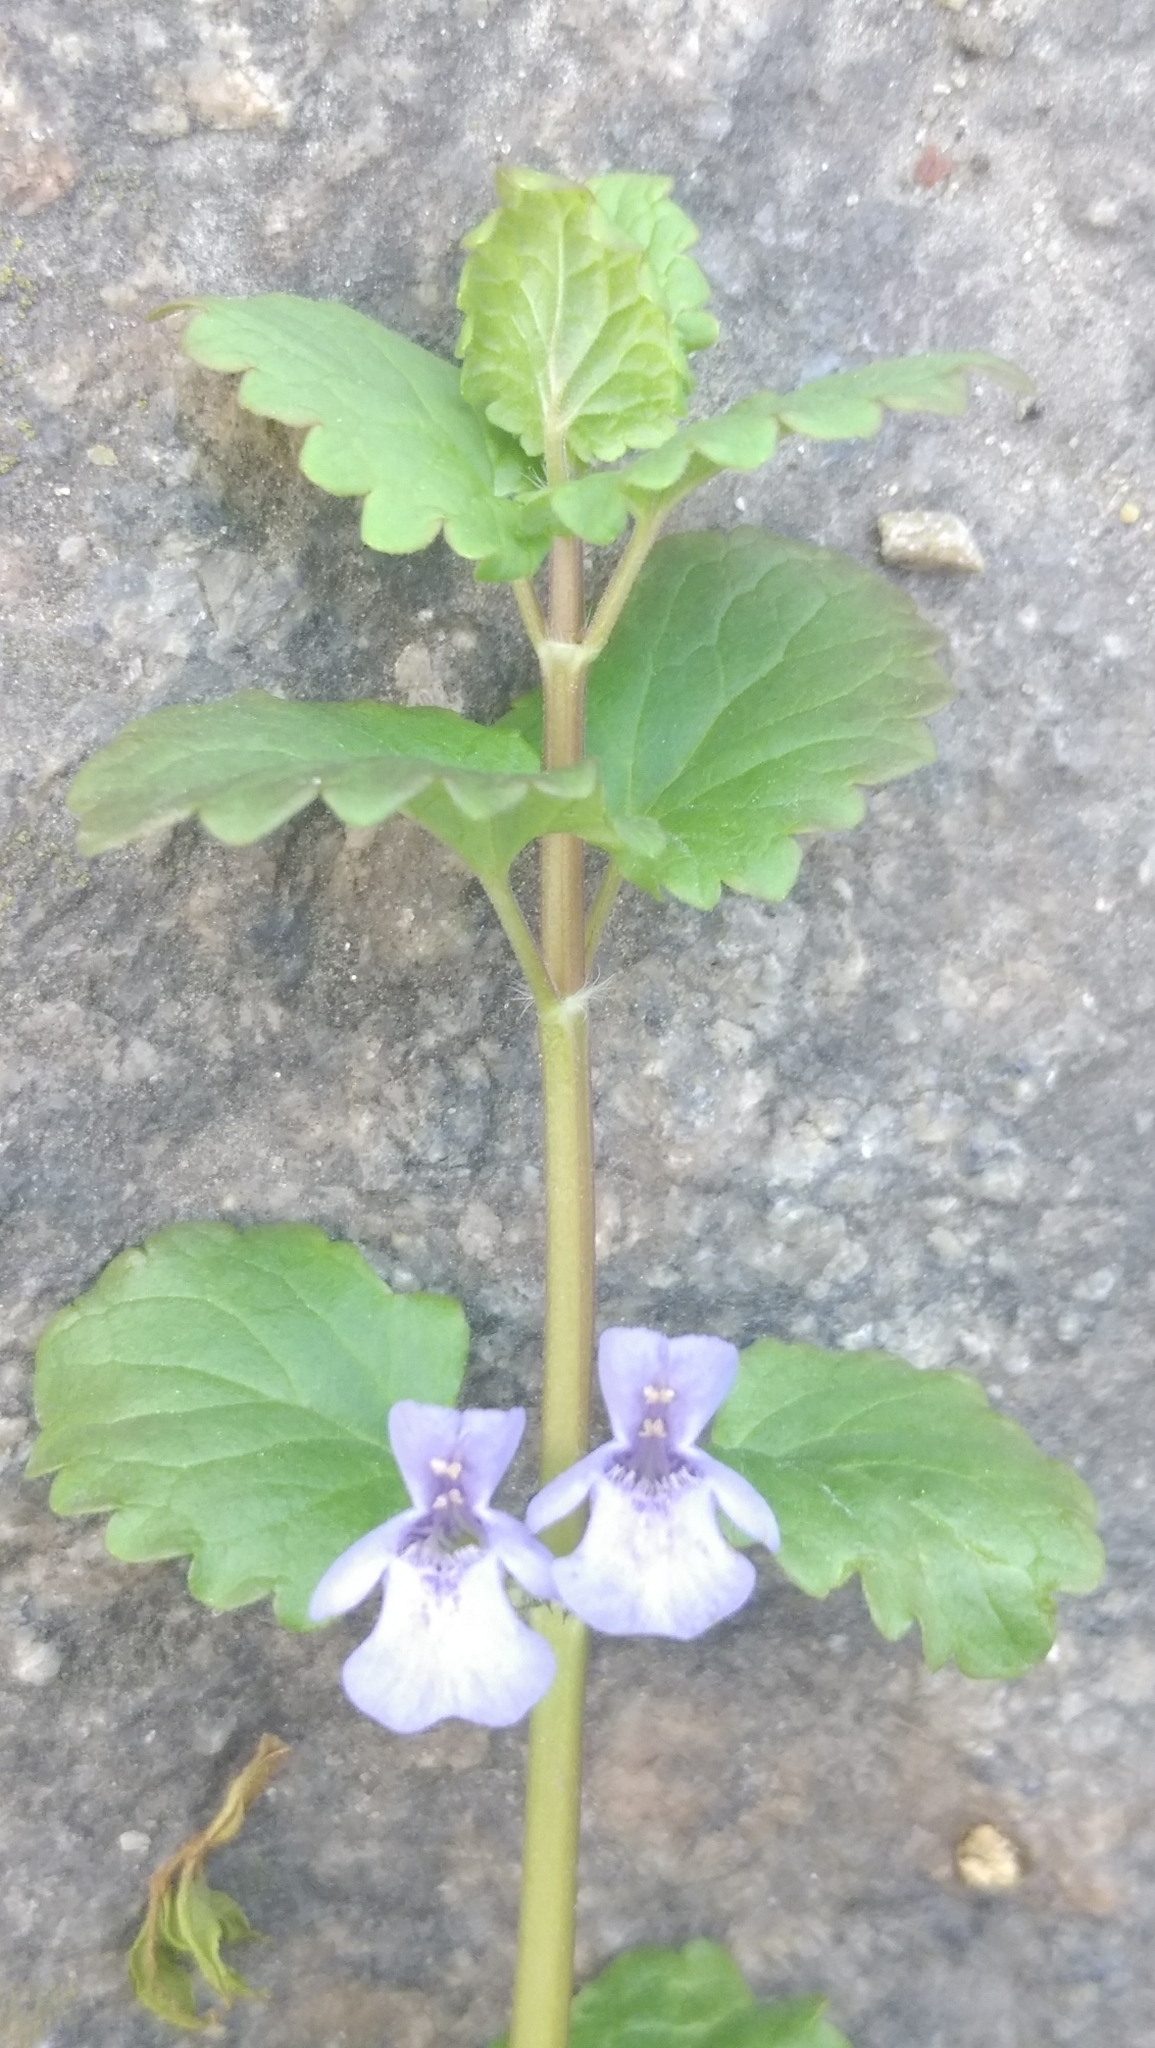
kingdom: Plantae
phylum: Tracheophyta
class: Magnoliopsida
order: Lamiales
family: Lamiaceae
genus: Glechoma
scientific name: Glechoma hederacea
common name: Ground ivy
